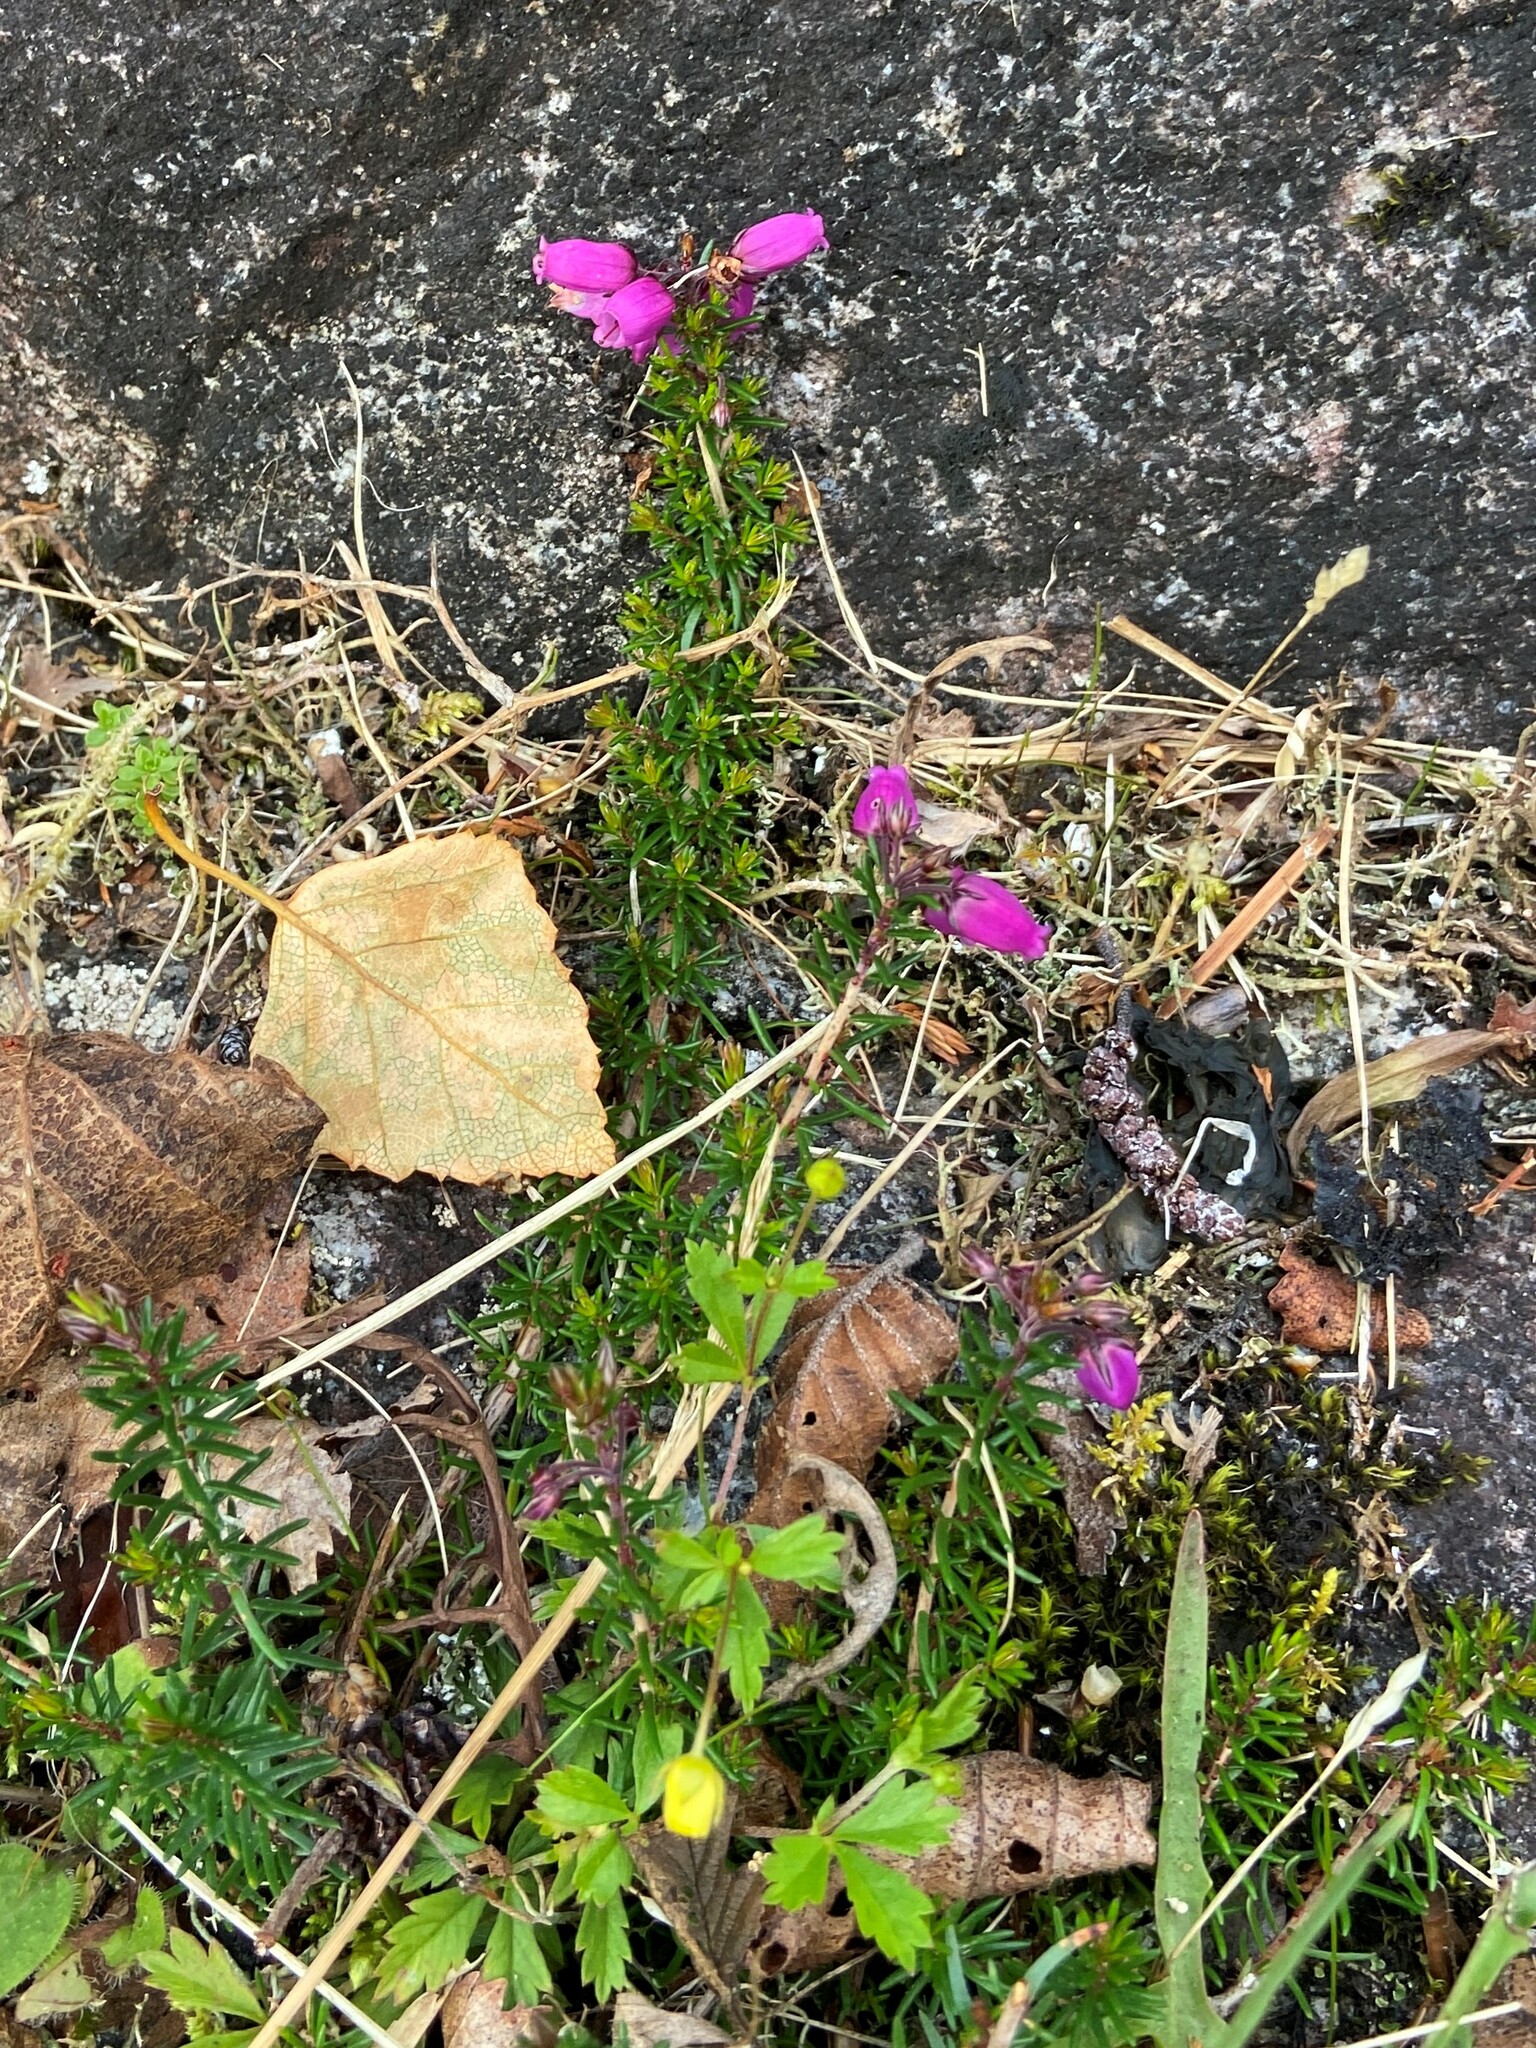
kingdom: Plantae
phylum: Tracheophyta
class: Magnoliopsida
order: Ericales
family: Ericaceae
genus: Erica
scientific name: Erica cinerea
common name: Bell heather
